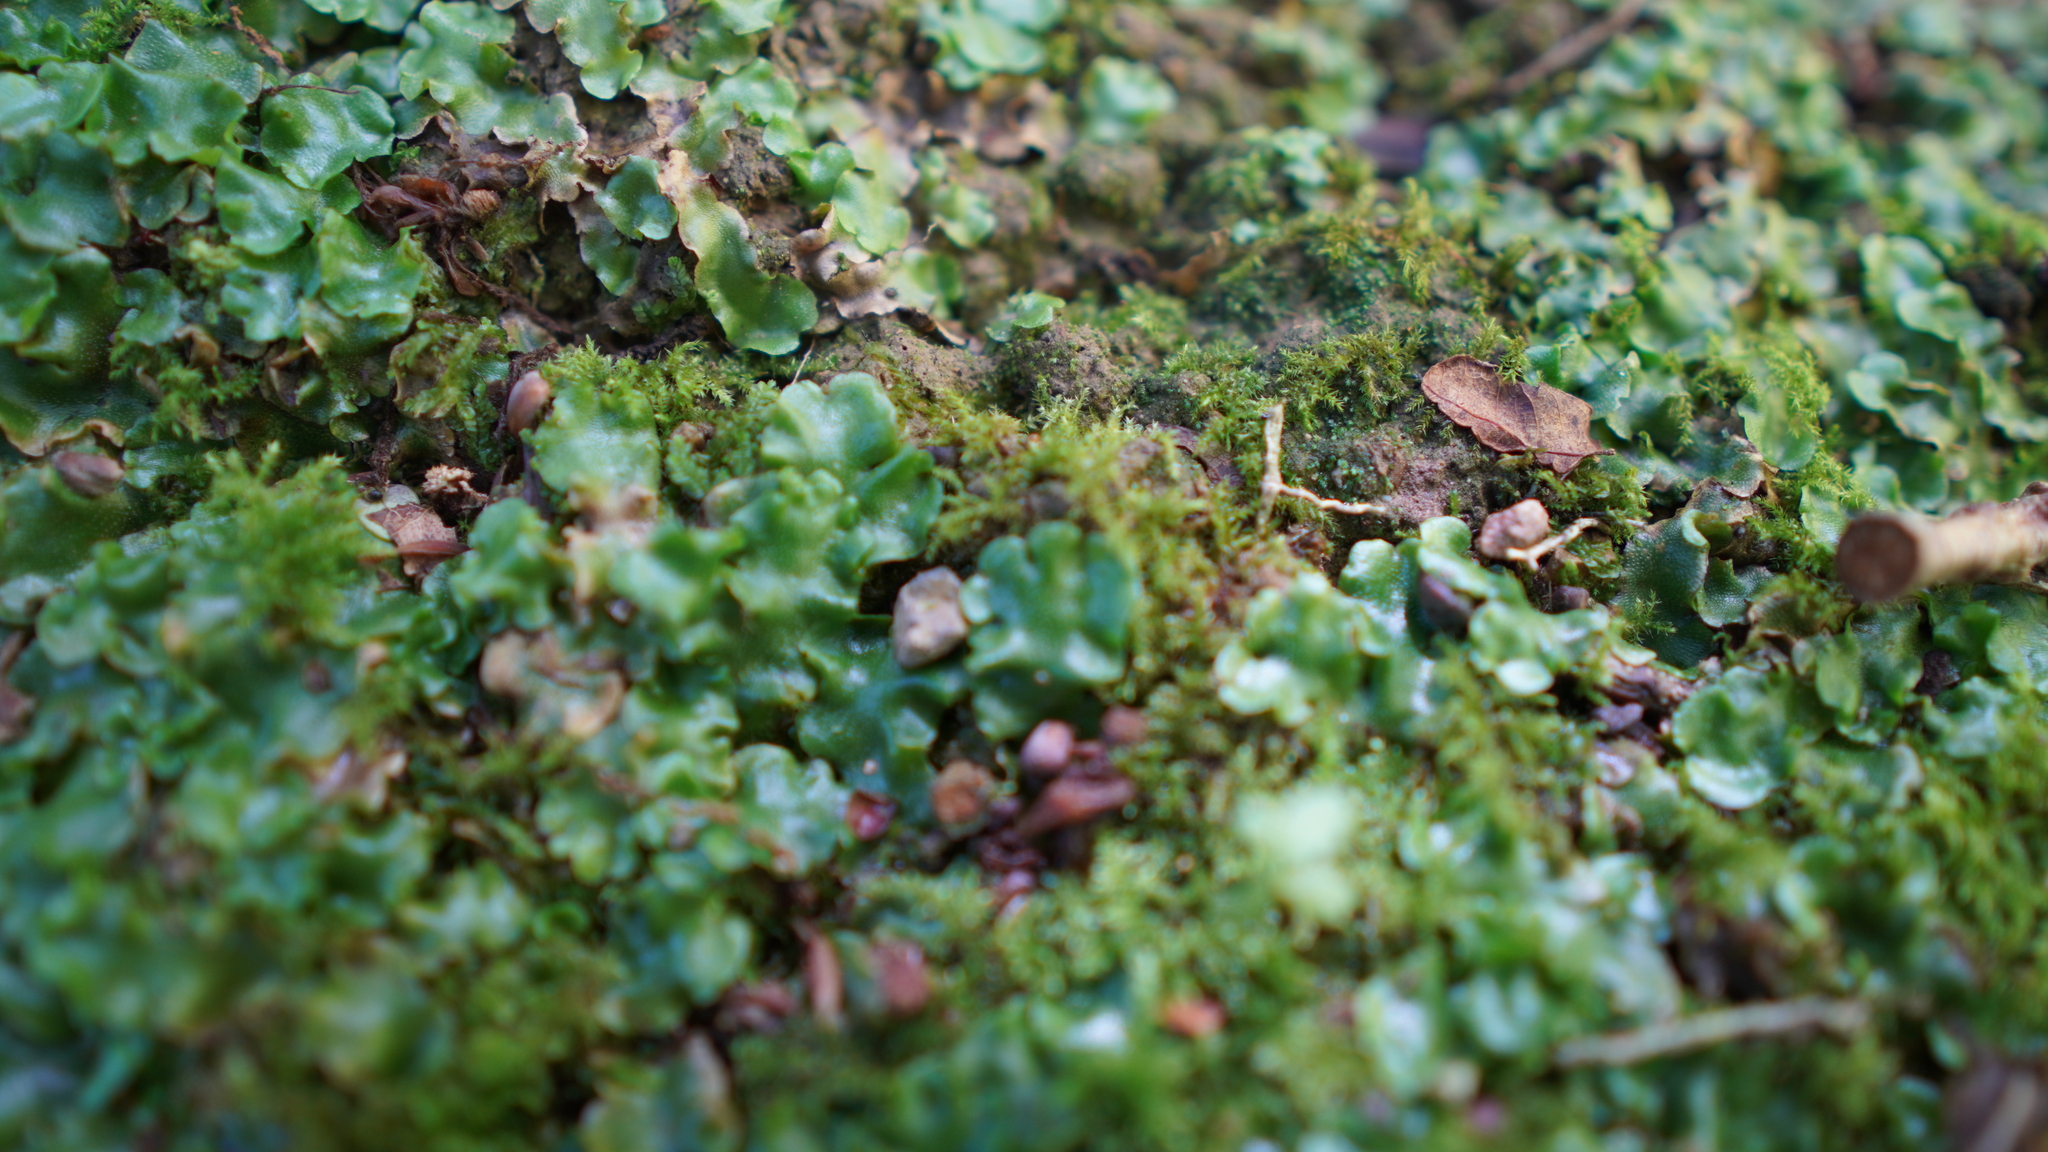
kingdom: Plantae
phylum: Marchantiophyta
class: Marchantiopsida
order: Lunulariales
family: Lunulariaceae
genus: Lunularia
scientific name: Lunularia cruciata
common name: Crescent-cup liverwort
